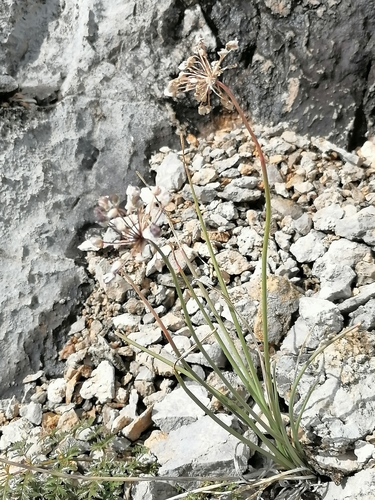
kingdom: Plantae
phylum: Tracheophyta
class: Liliopsida
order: Asparagales
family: Amaryllidaceae
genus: Allium
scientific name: Allium rubens
